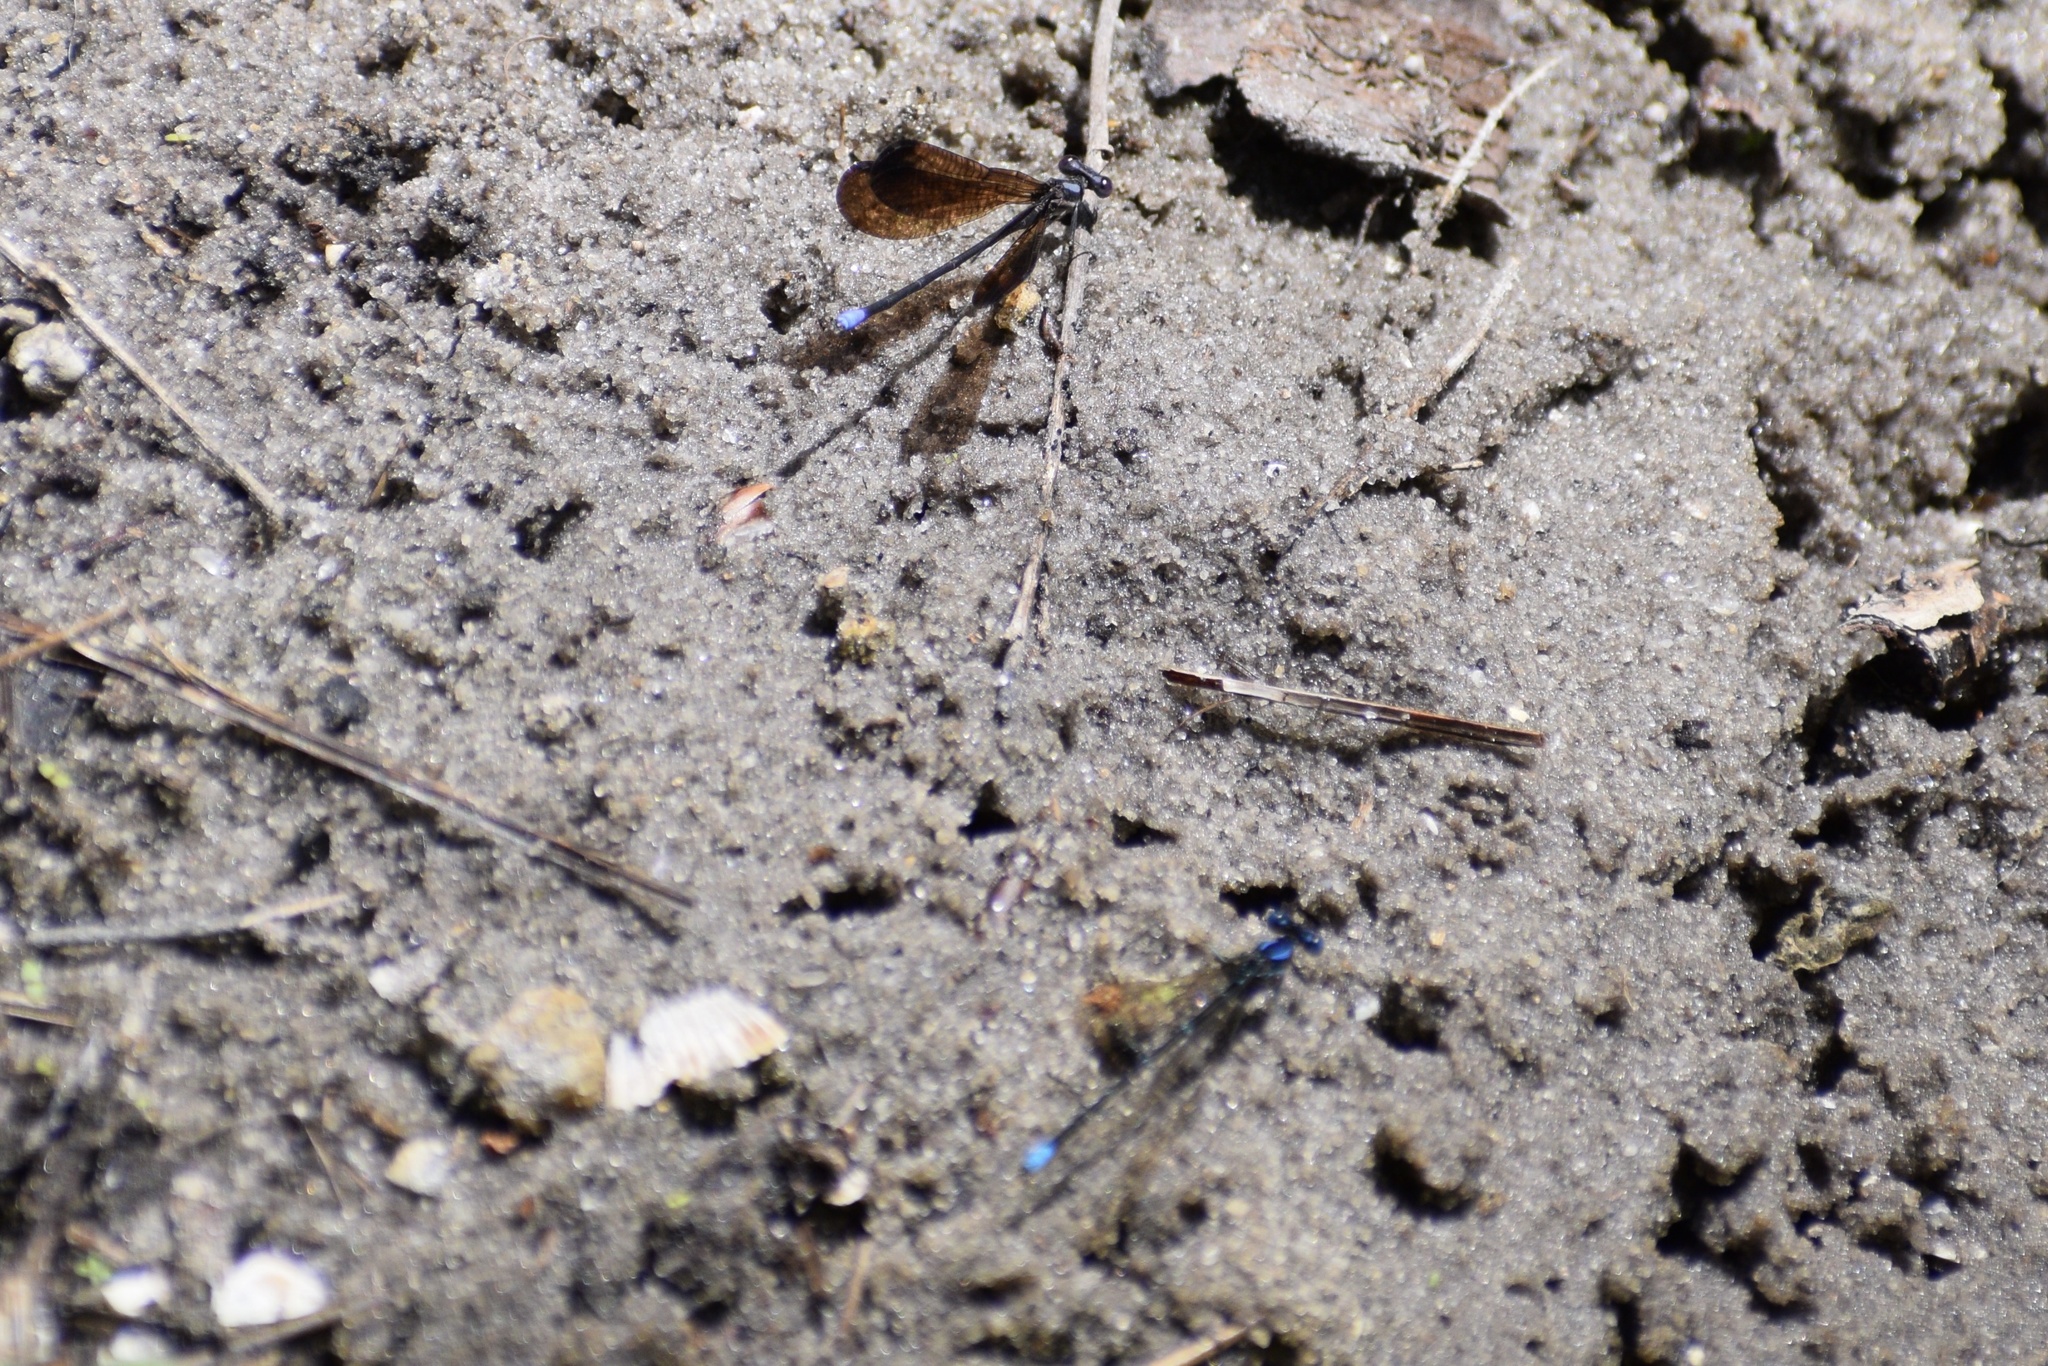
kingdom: Animalia
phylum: Arthropoda
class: Insecta
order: Odonata
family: Coenagrionidae
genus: Argia
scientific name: Argia fumipennis
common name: Variable dancer
